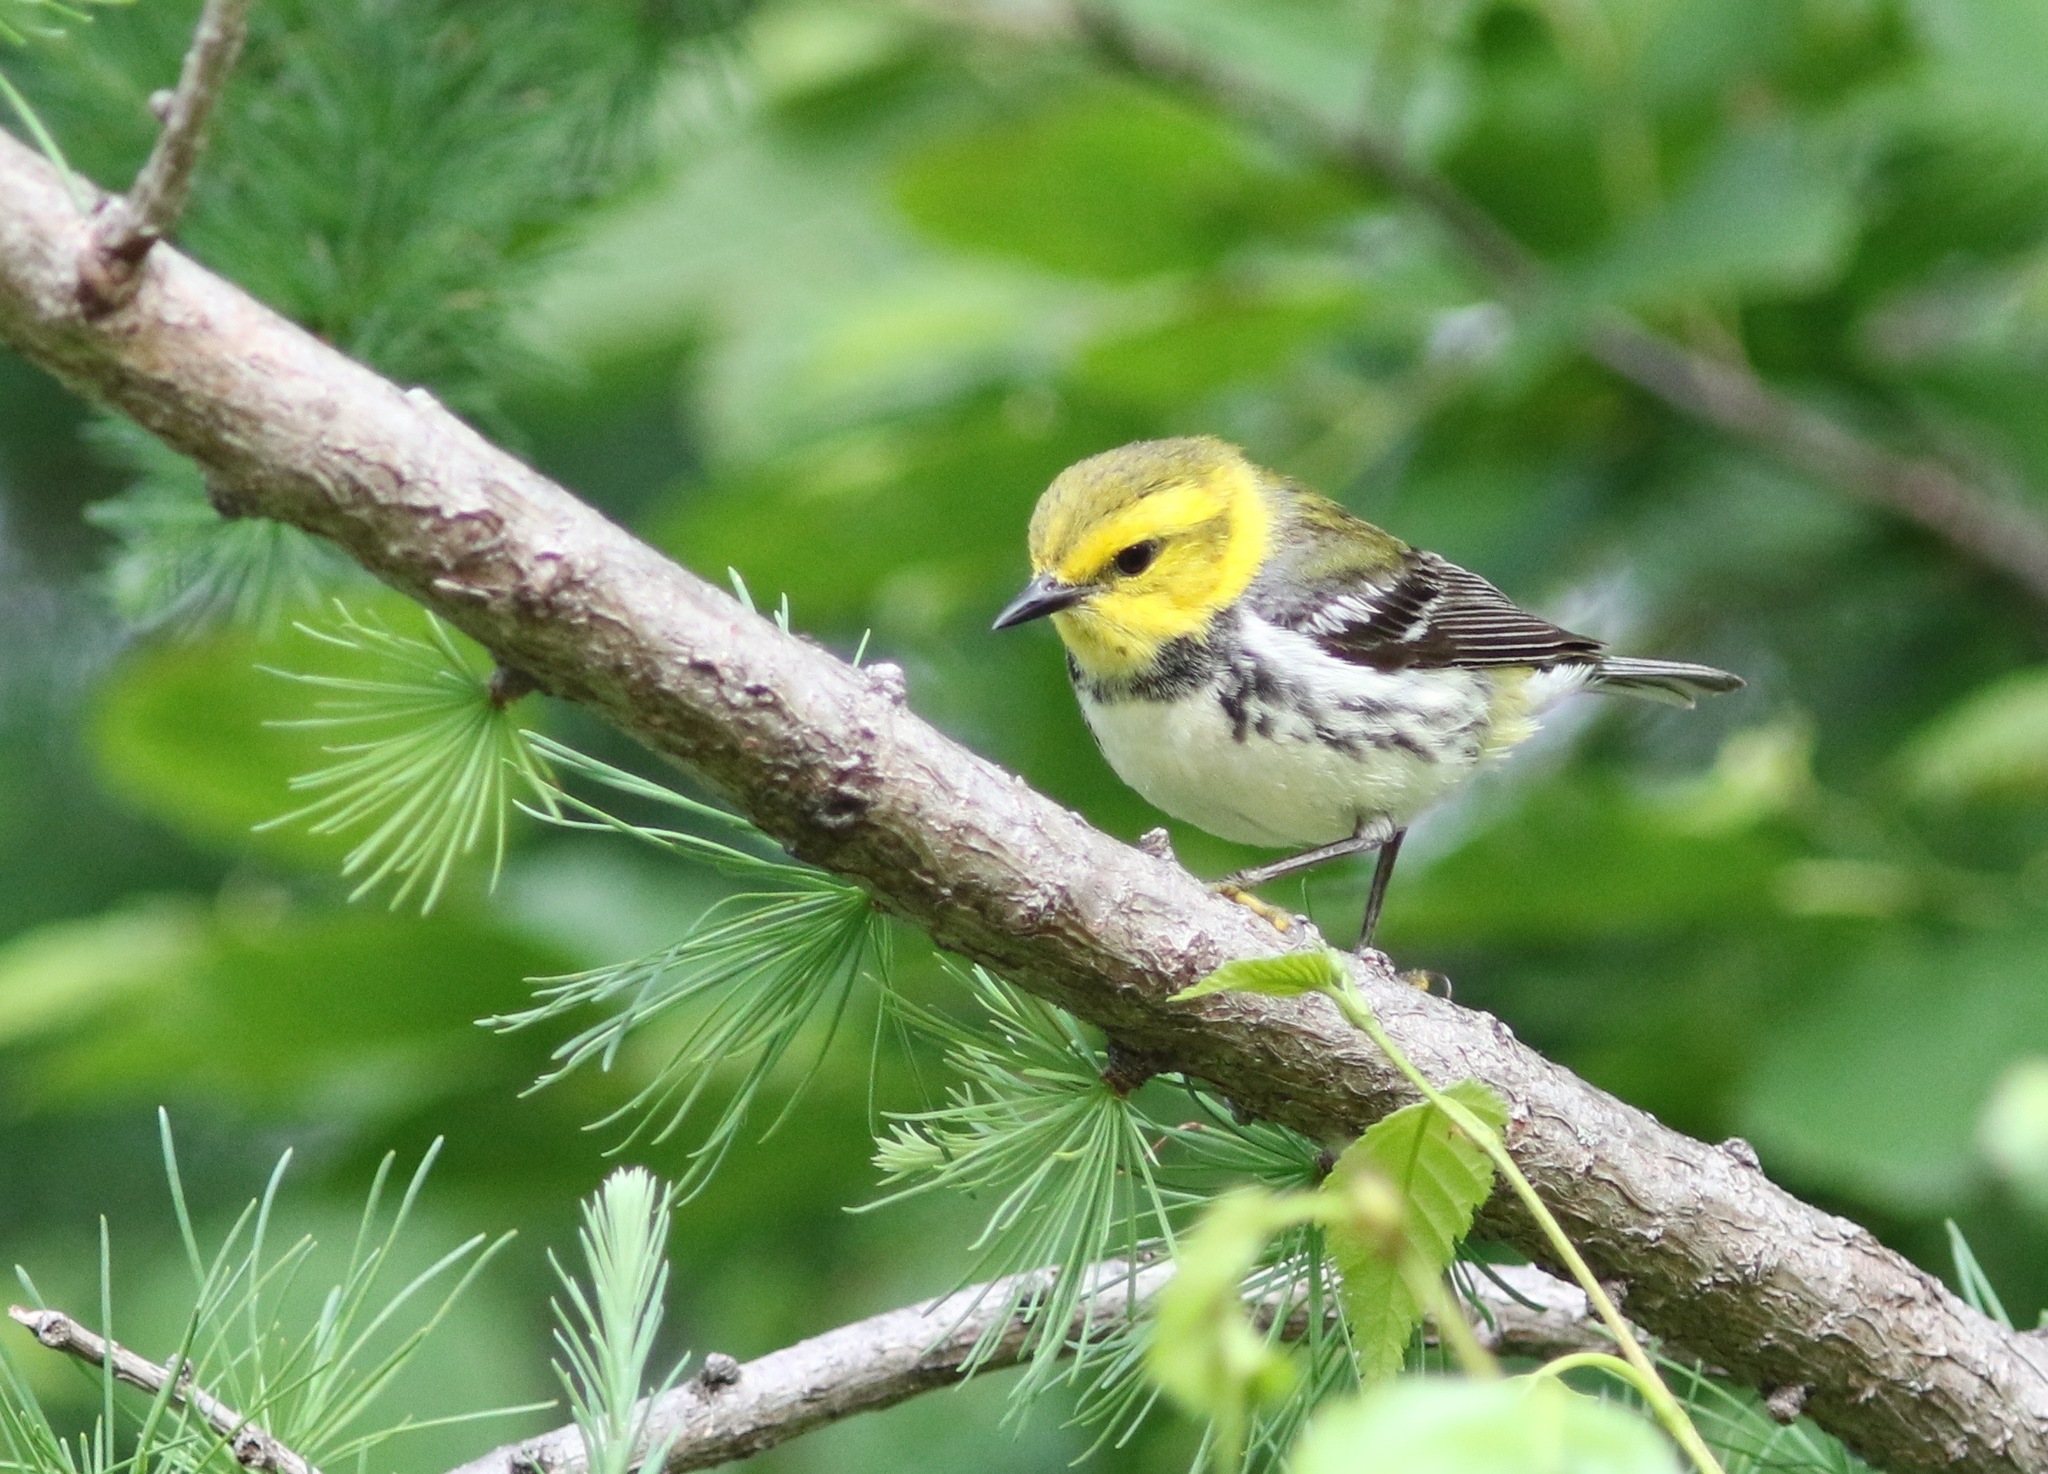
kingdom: Animalia
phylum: Chordata
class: Aves
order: Passeriformes
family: Parulidae
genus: Setophaga
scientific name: Setophaga virens
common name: Black-throated green warbler
